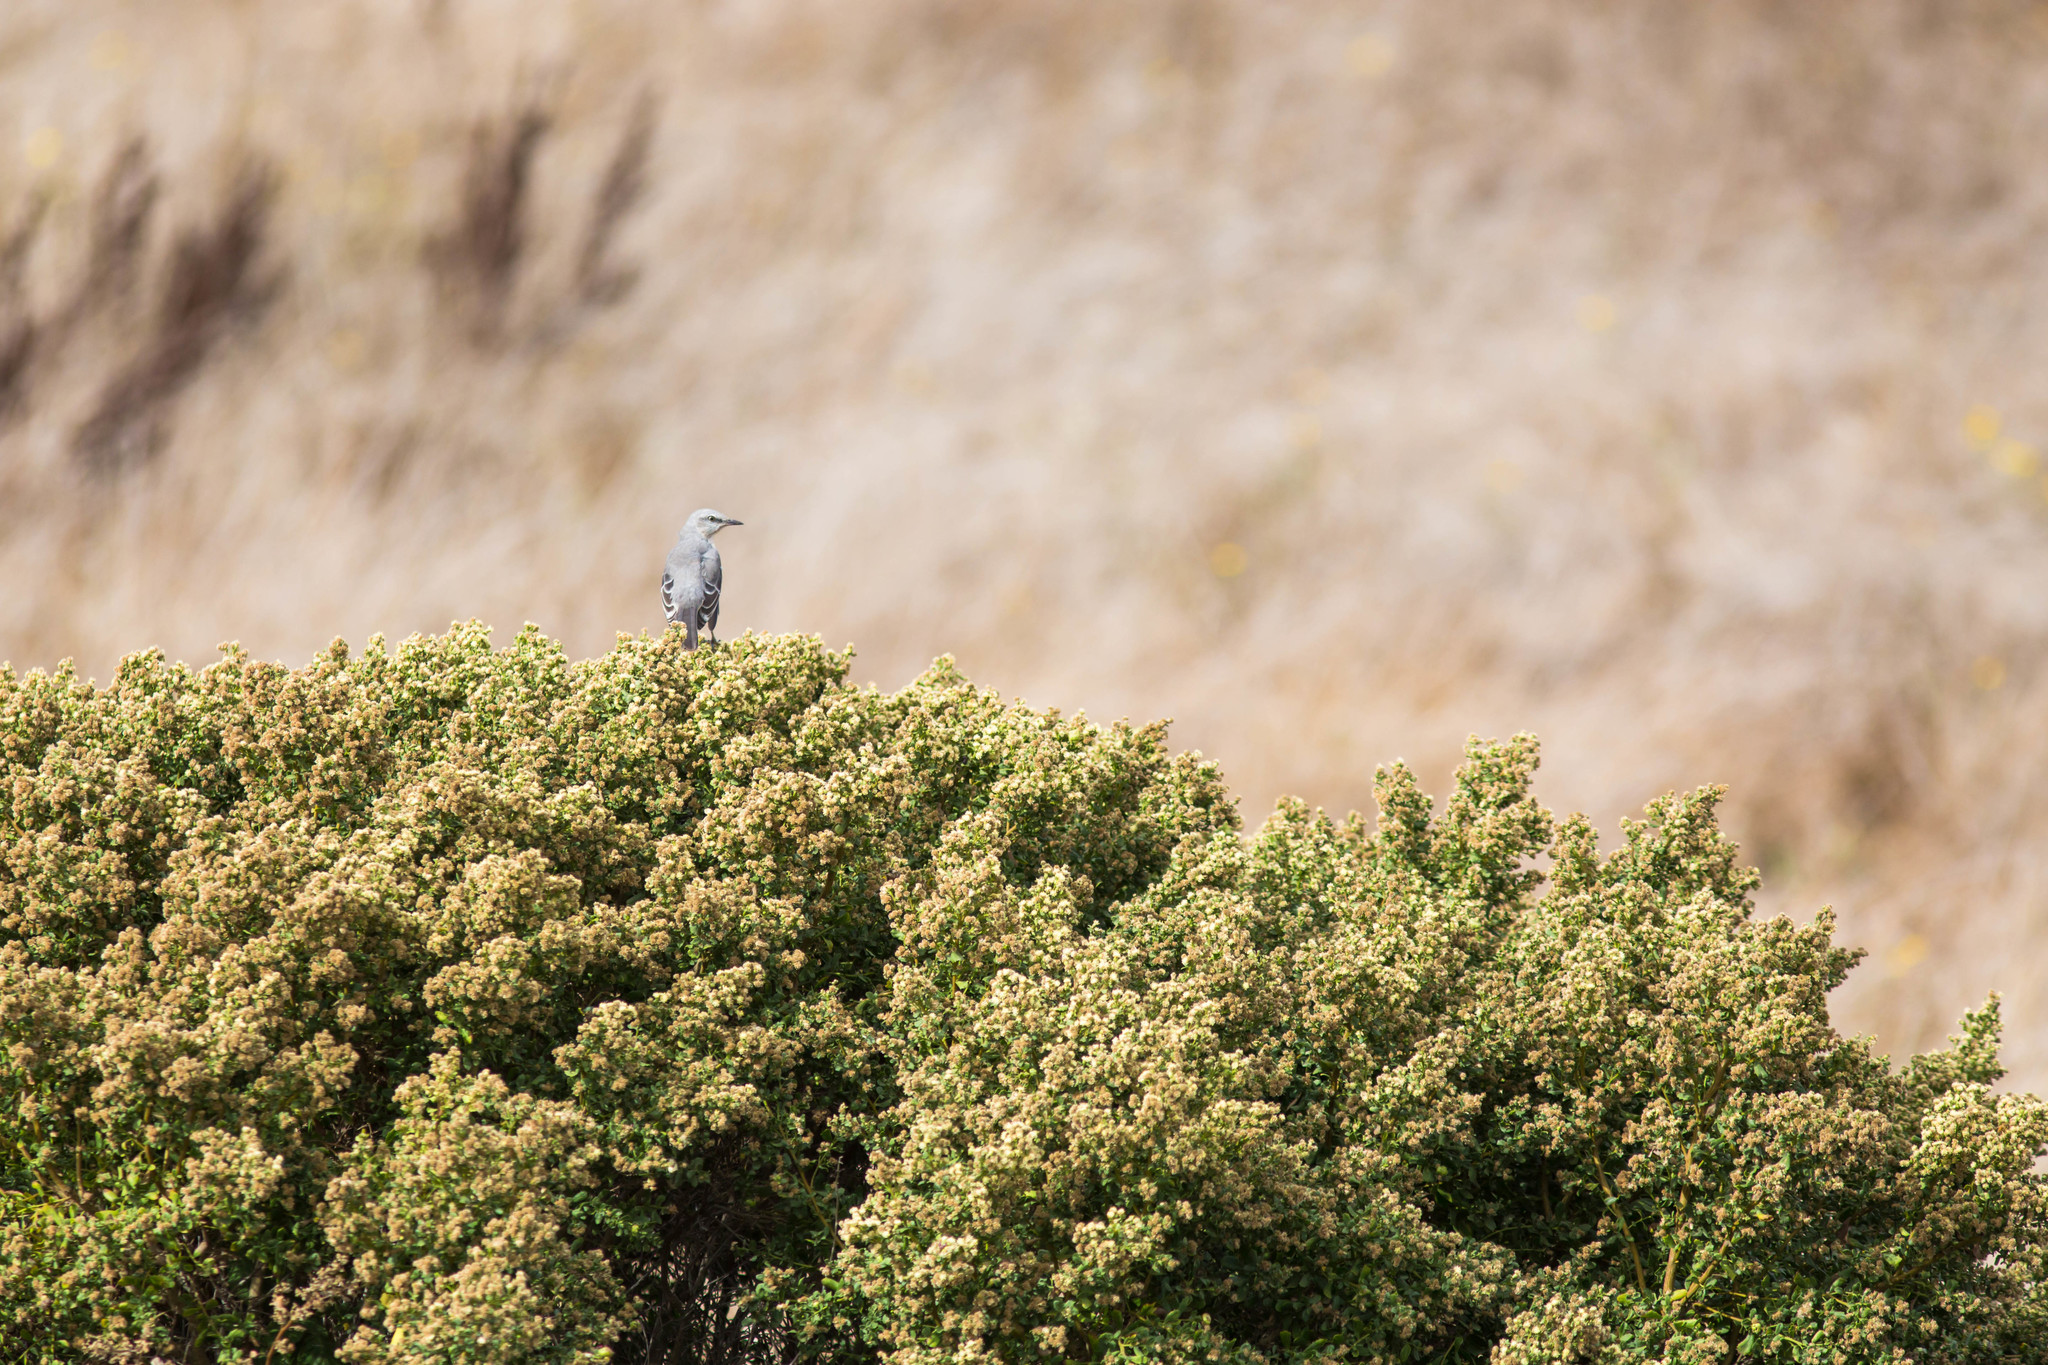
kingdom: Animalia
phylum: Chordata
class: Aves
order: Passeriformes
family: Mimidae
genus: Mimus
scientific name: Mimus polyglottos
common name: Northern mockingbird
